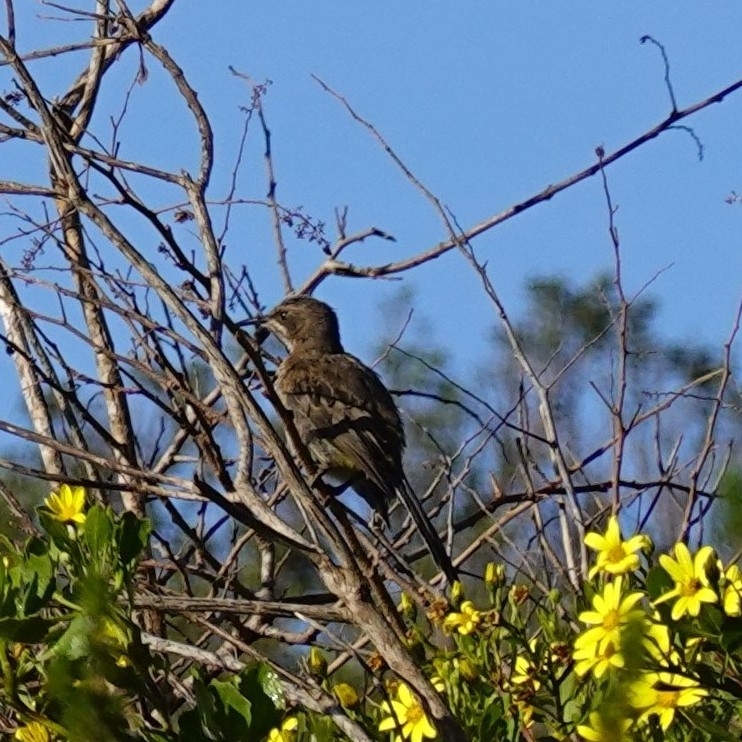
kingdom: Animalia
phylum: Chordata
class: Aves
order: Passeriformes
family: Promeropidae
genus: Promerops
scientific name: Promerops cafer
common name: Cape sugarbird
